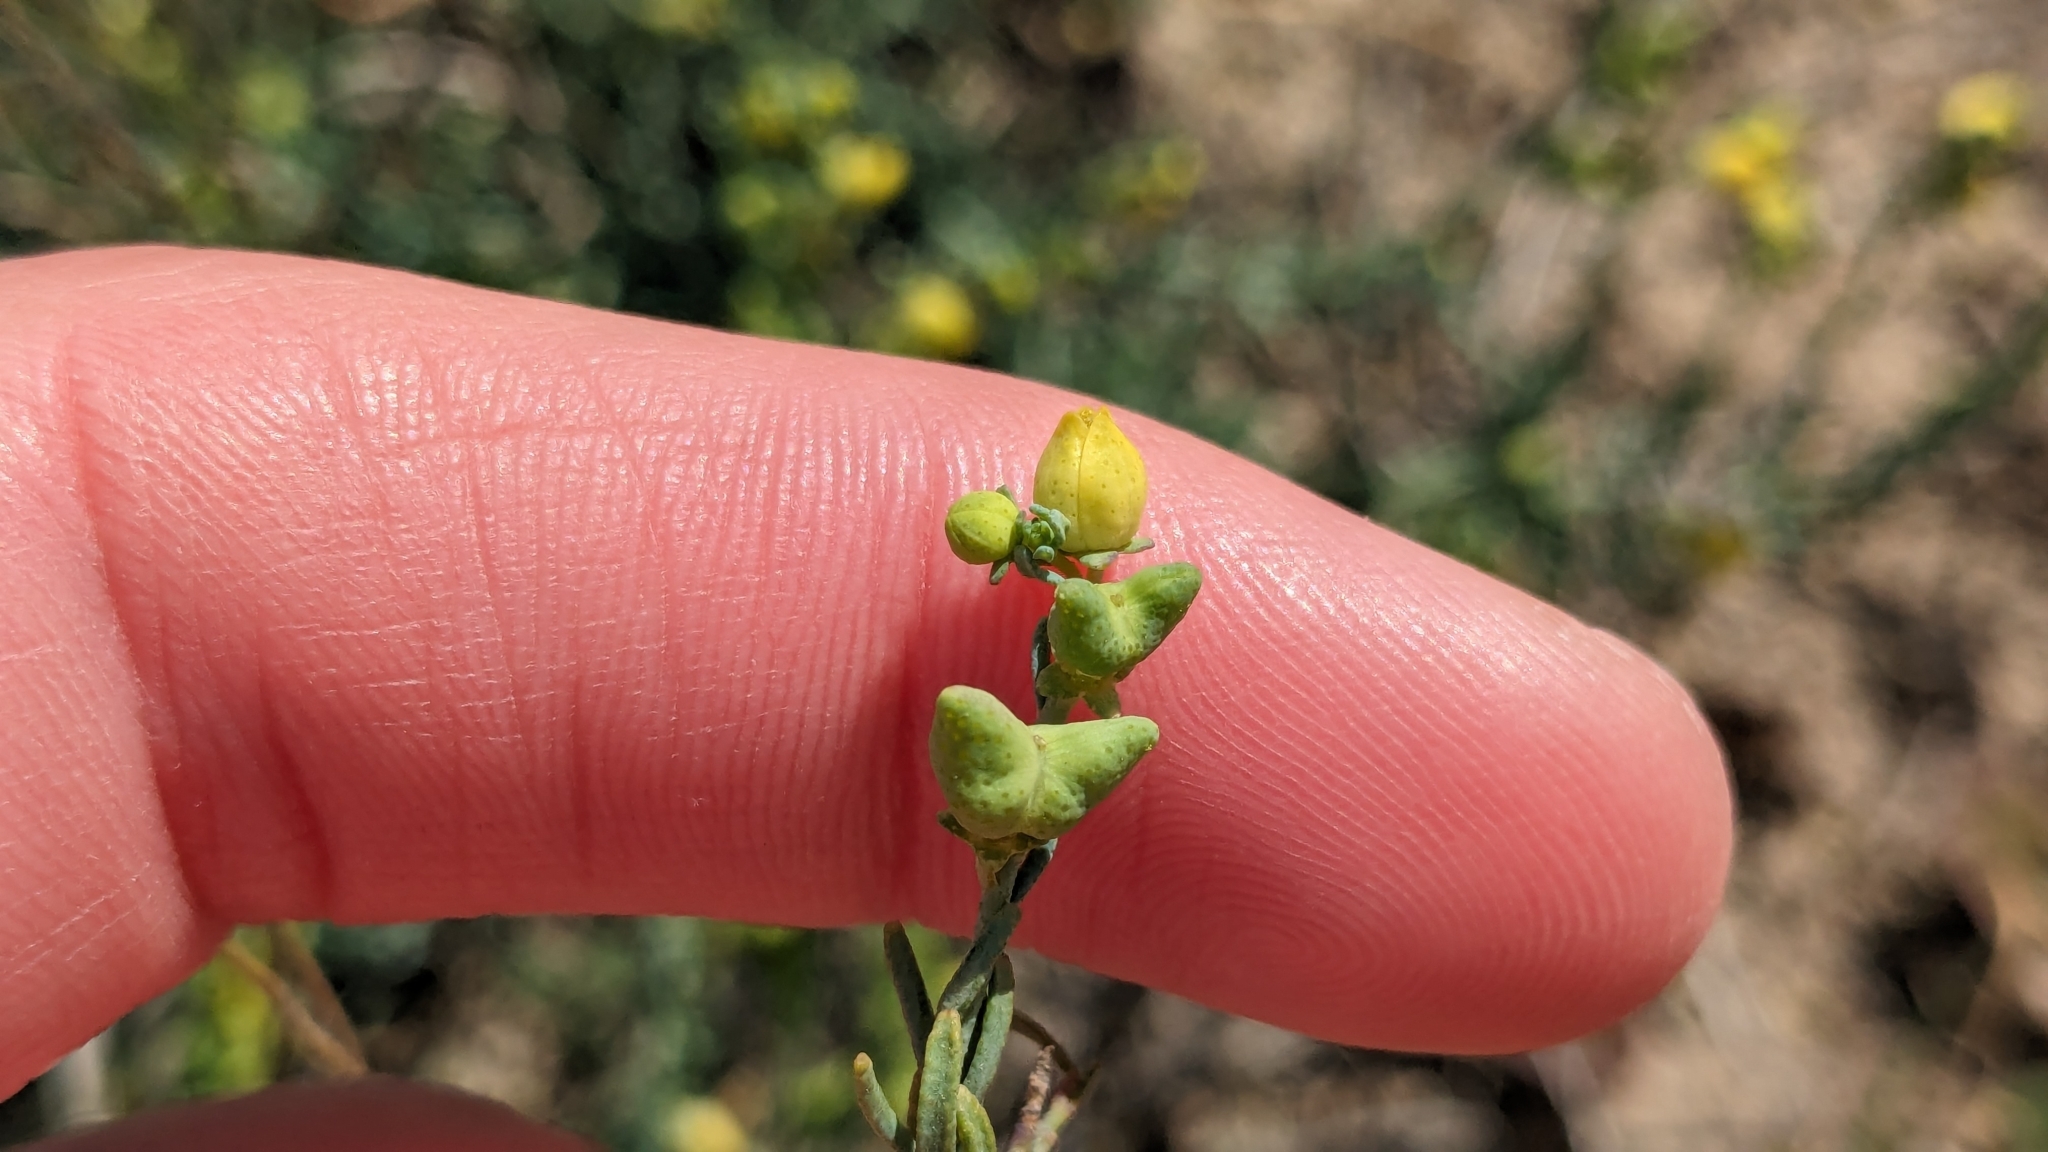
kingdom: Plantae
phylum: Tracheophyta
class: Magnoliopsida
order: Sapindales
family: Rutaceae
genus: Thamnosma
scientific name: Thamnosma texana
